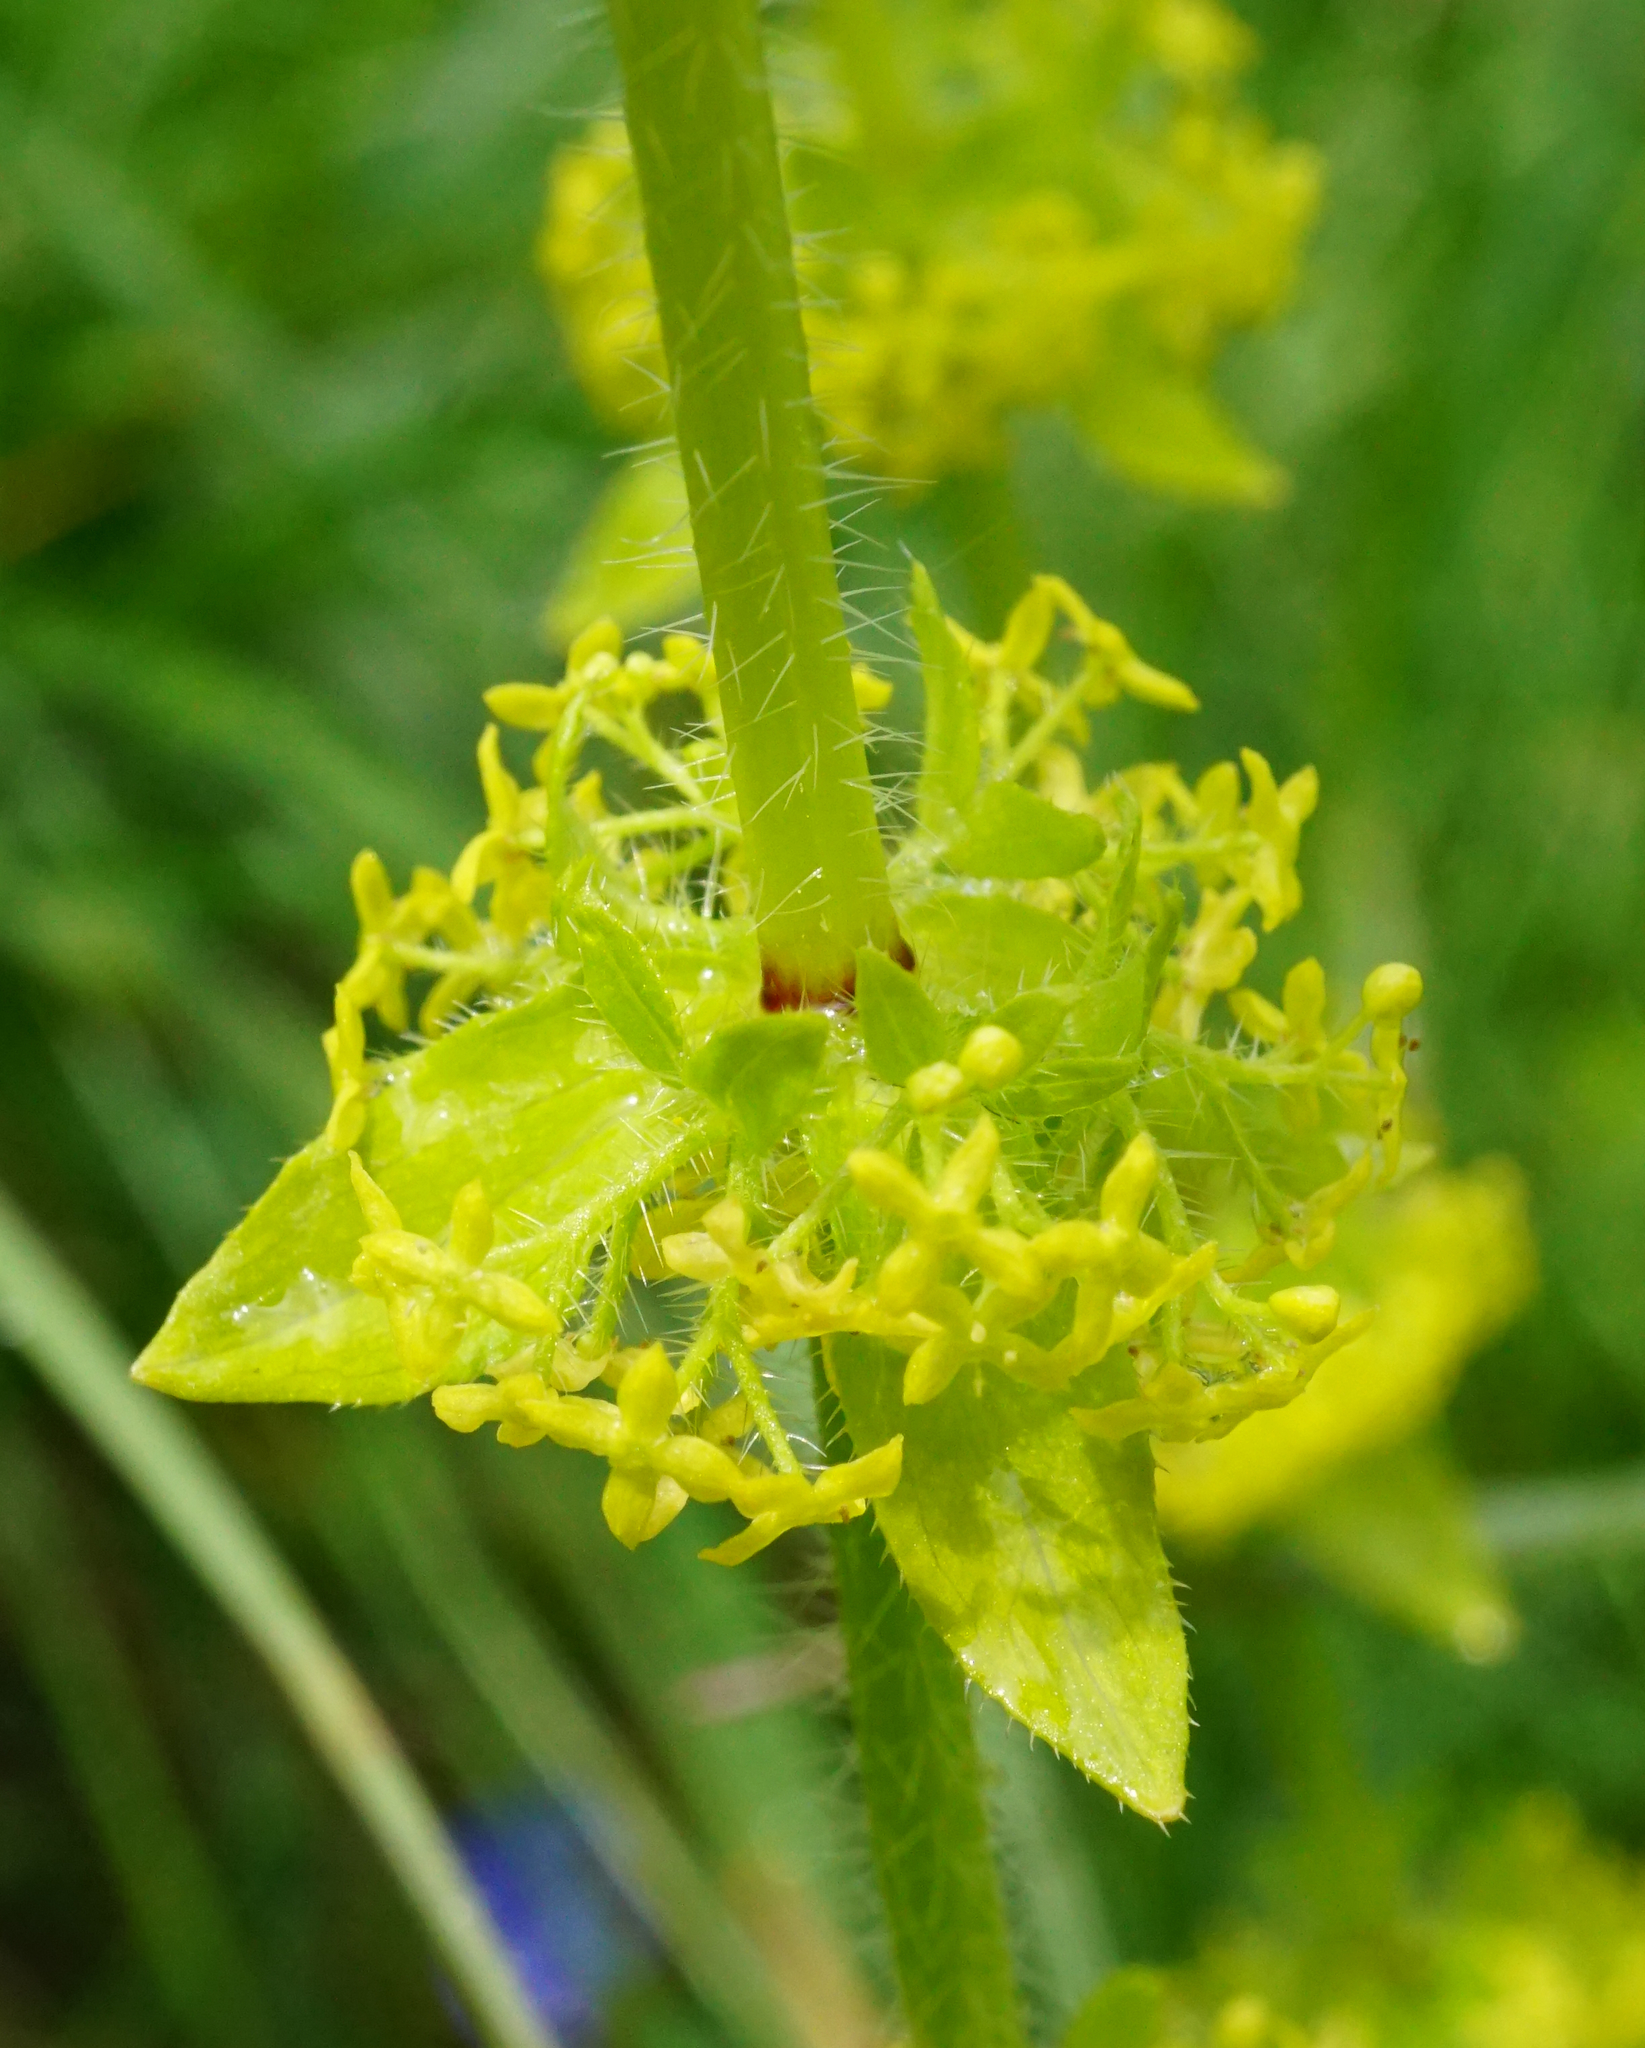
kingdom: Plantae
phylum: Tracheophyta
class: Magnoliopsida
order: Gentianales
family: Rubiaceae
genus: Cruciata
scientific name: Cruciata laevipes
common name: Crosswort
